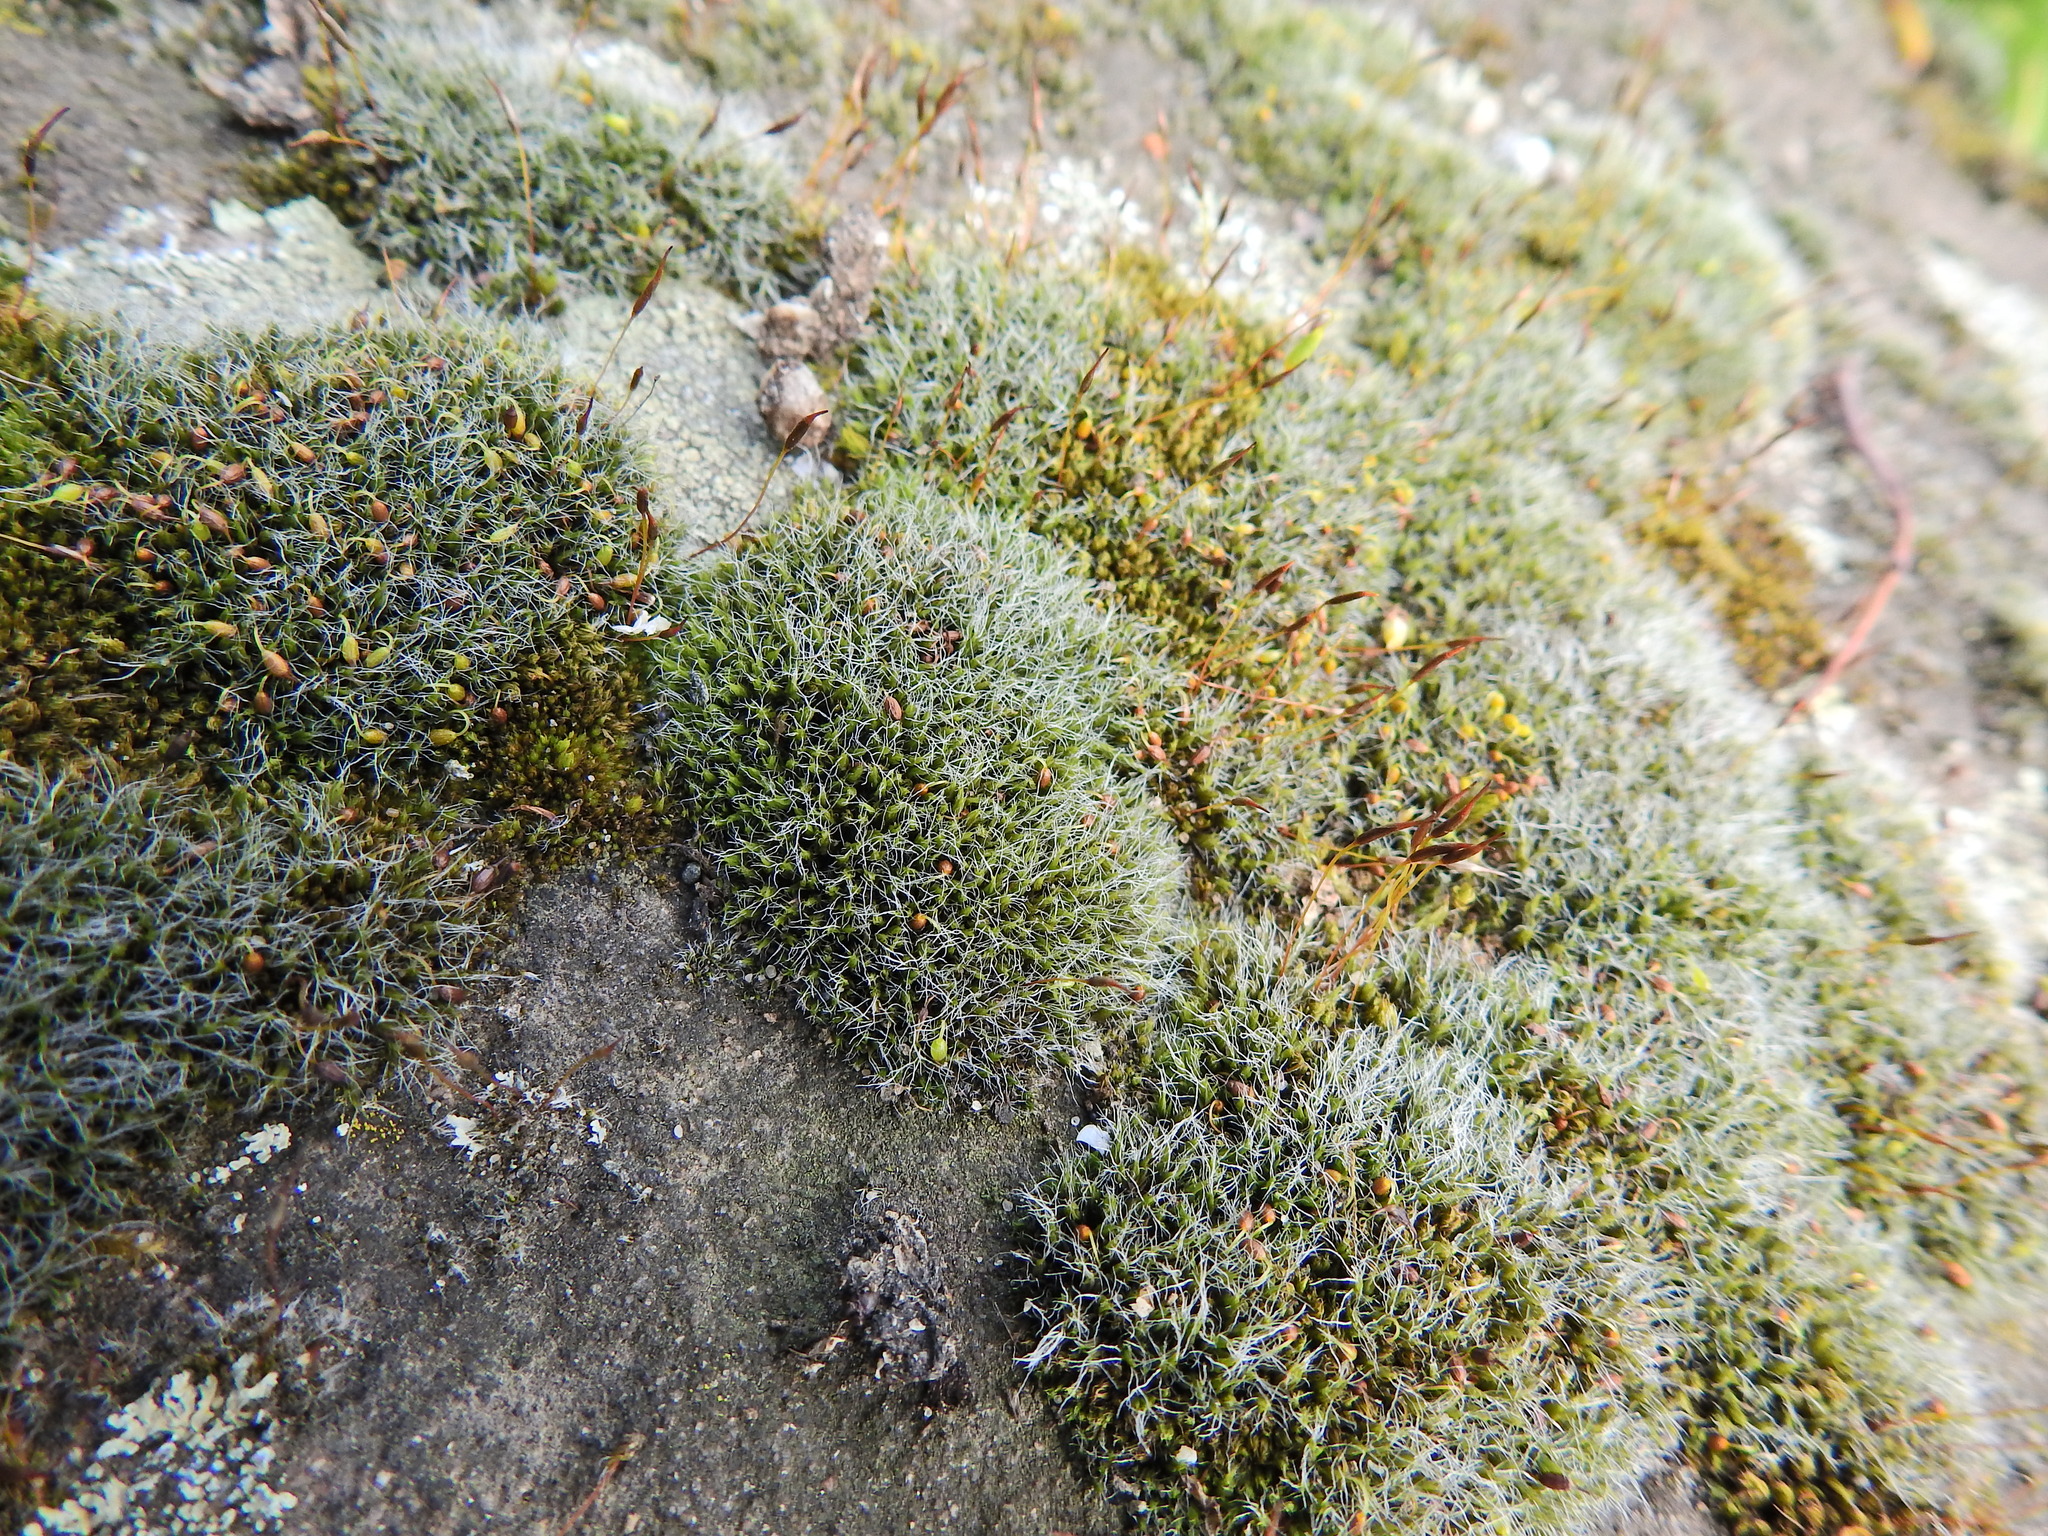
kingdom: Plantae
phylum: Bryophyta
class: Bryopsida
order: Grimmiales
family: Grimmiaceae
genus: Grimmia
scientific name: Grimmia pulvinata
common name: Grey-cushioned grimmia
